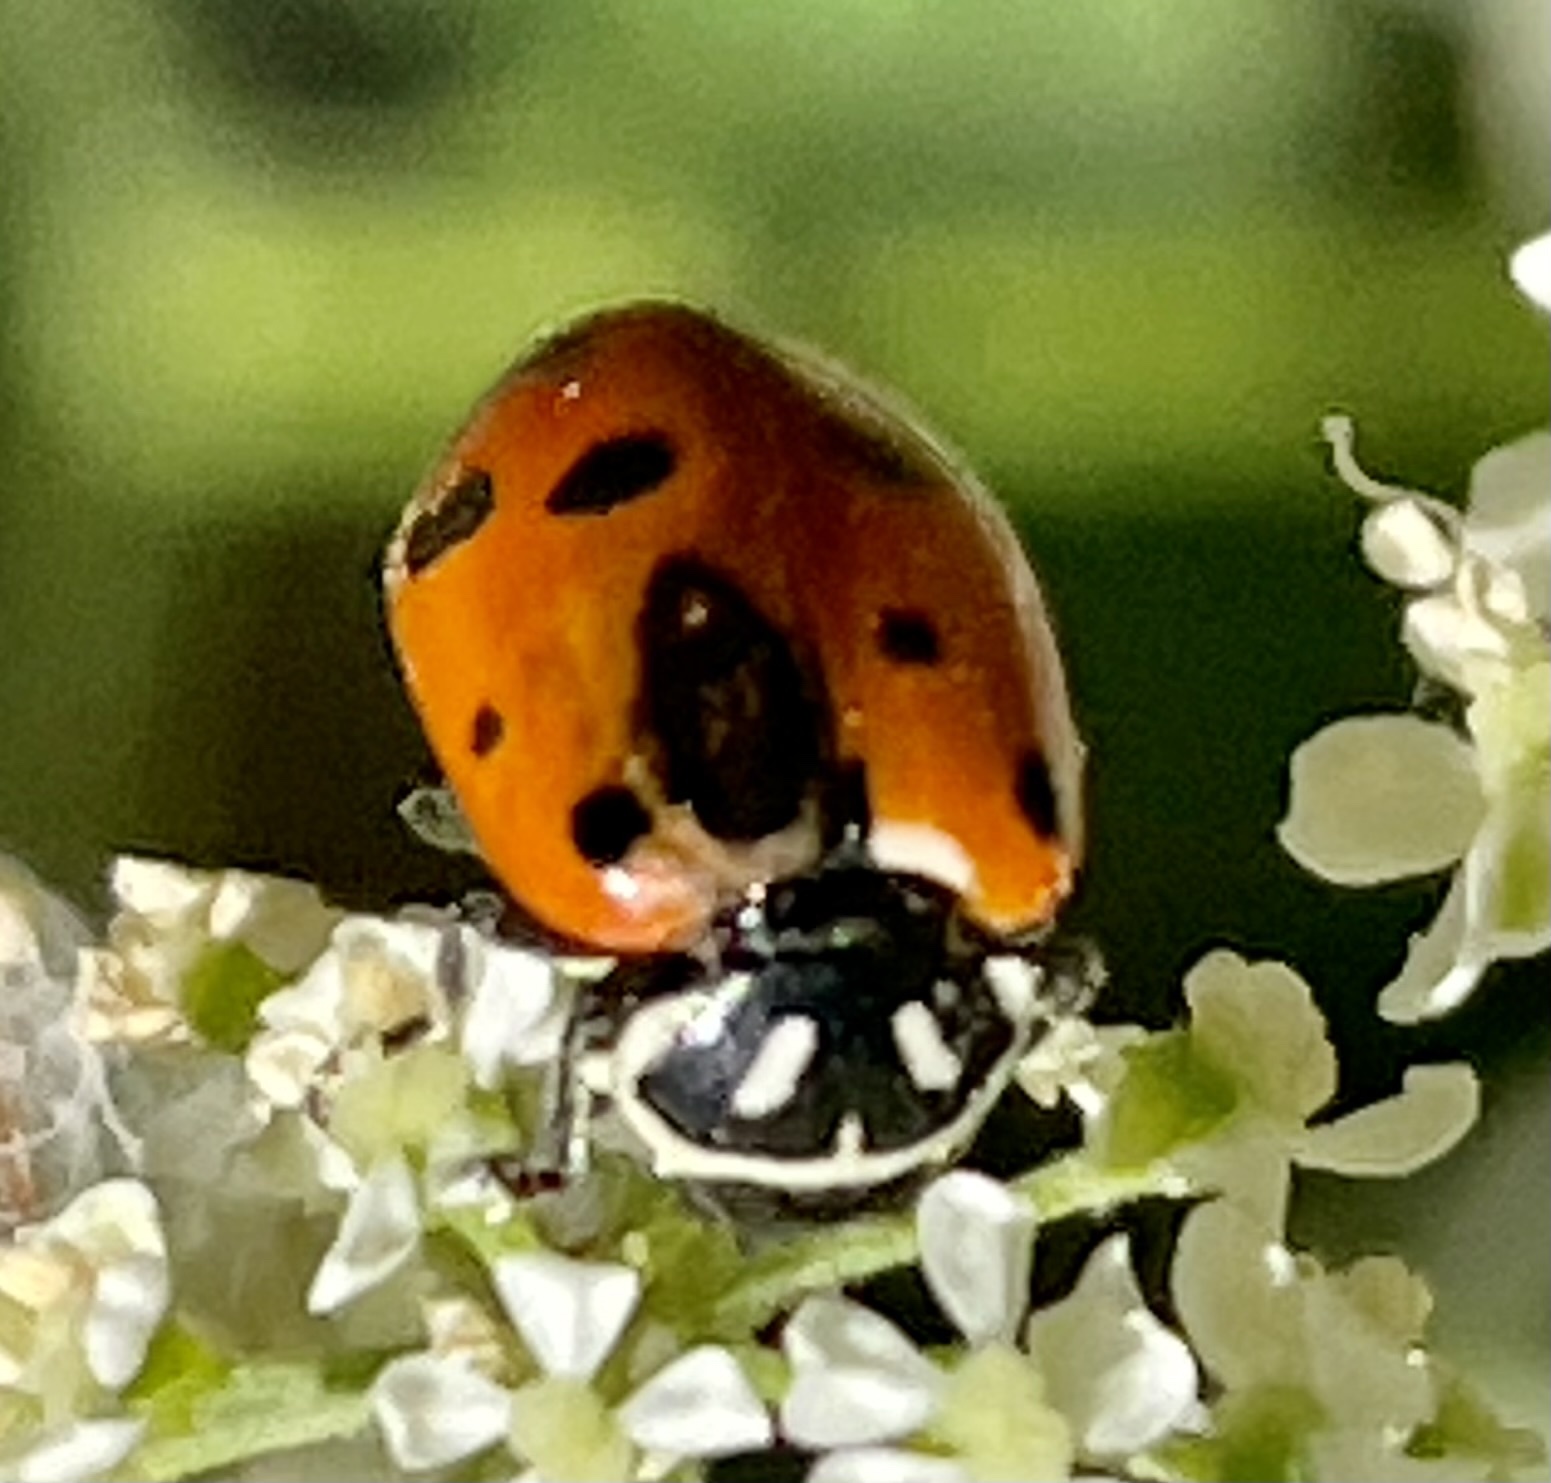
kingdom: Animalia
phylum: Arthropoda
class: Insecta
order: Coleoptera
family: Coccinellidae
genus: Hippodamia
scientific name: Hippodamia convergens
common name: Convergent lady beetle
